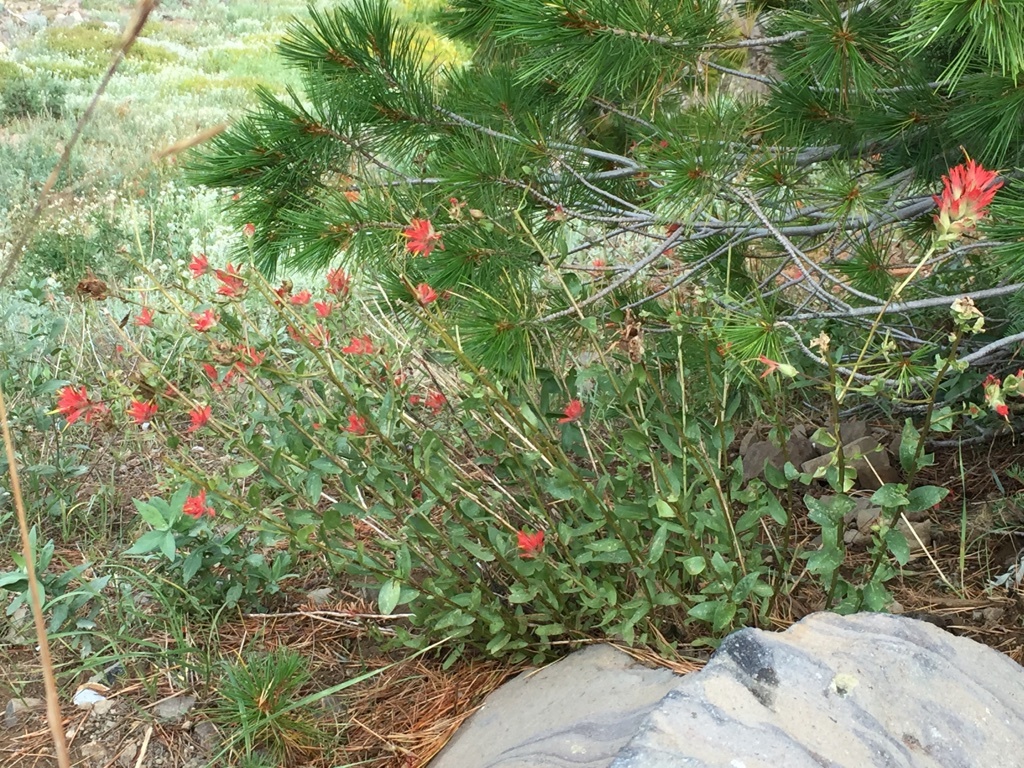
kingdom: Plantae
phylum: Tracheophyta
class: Magnoliopsida
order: Lamiales
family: Orobanchaceae
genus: Castilleja
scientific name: Castilleja miniata
